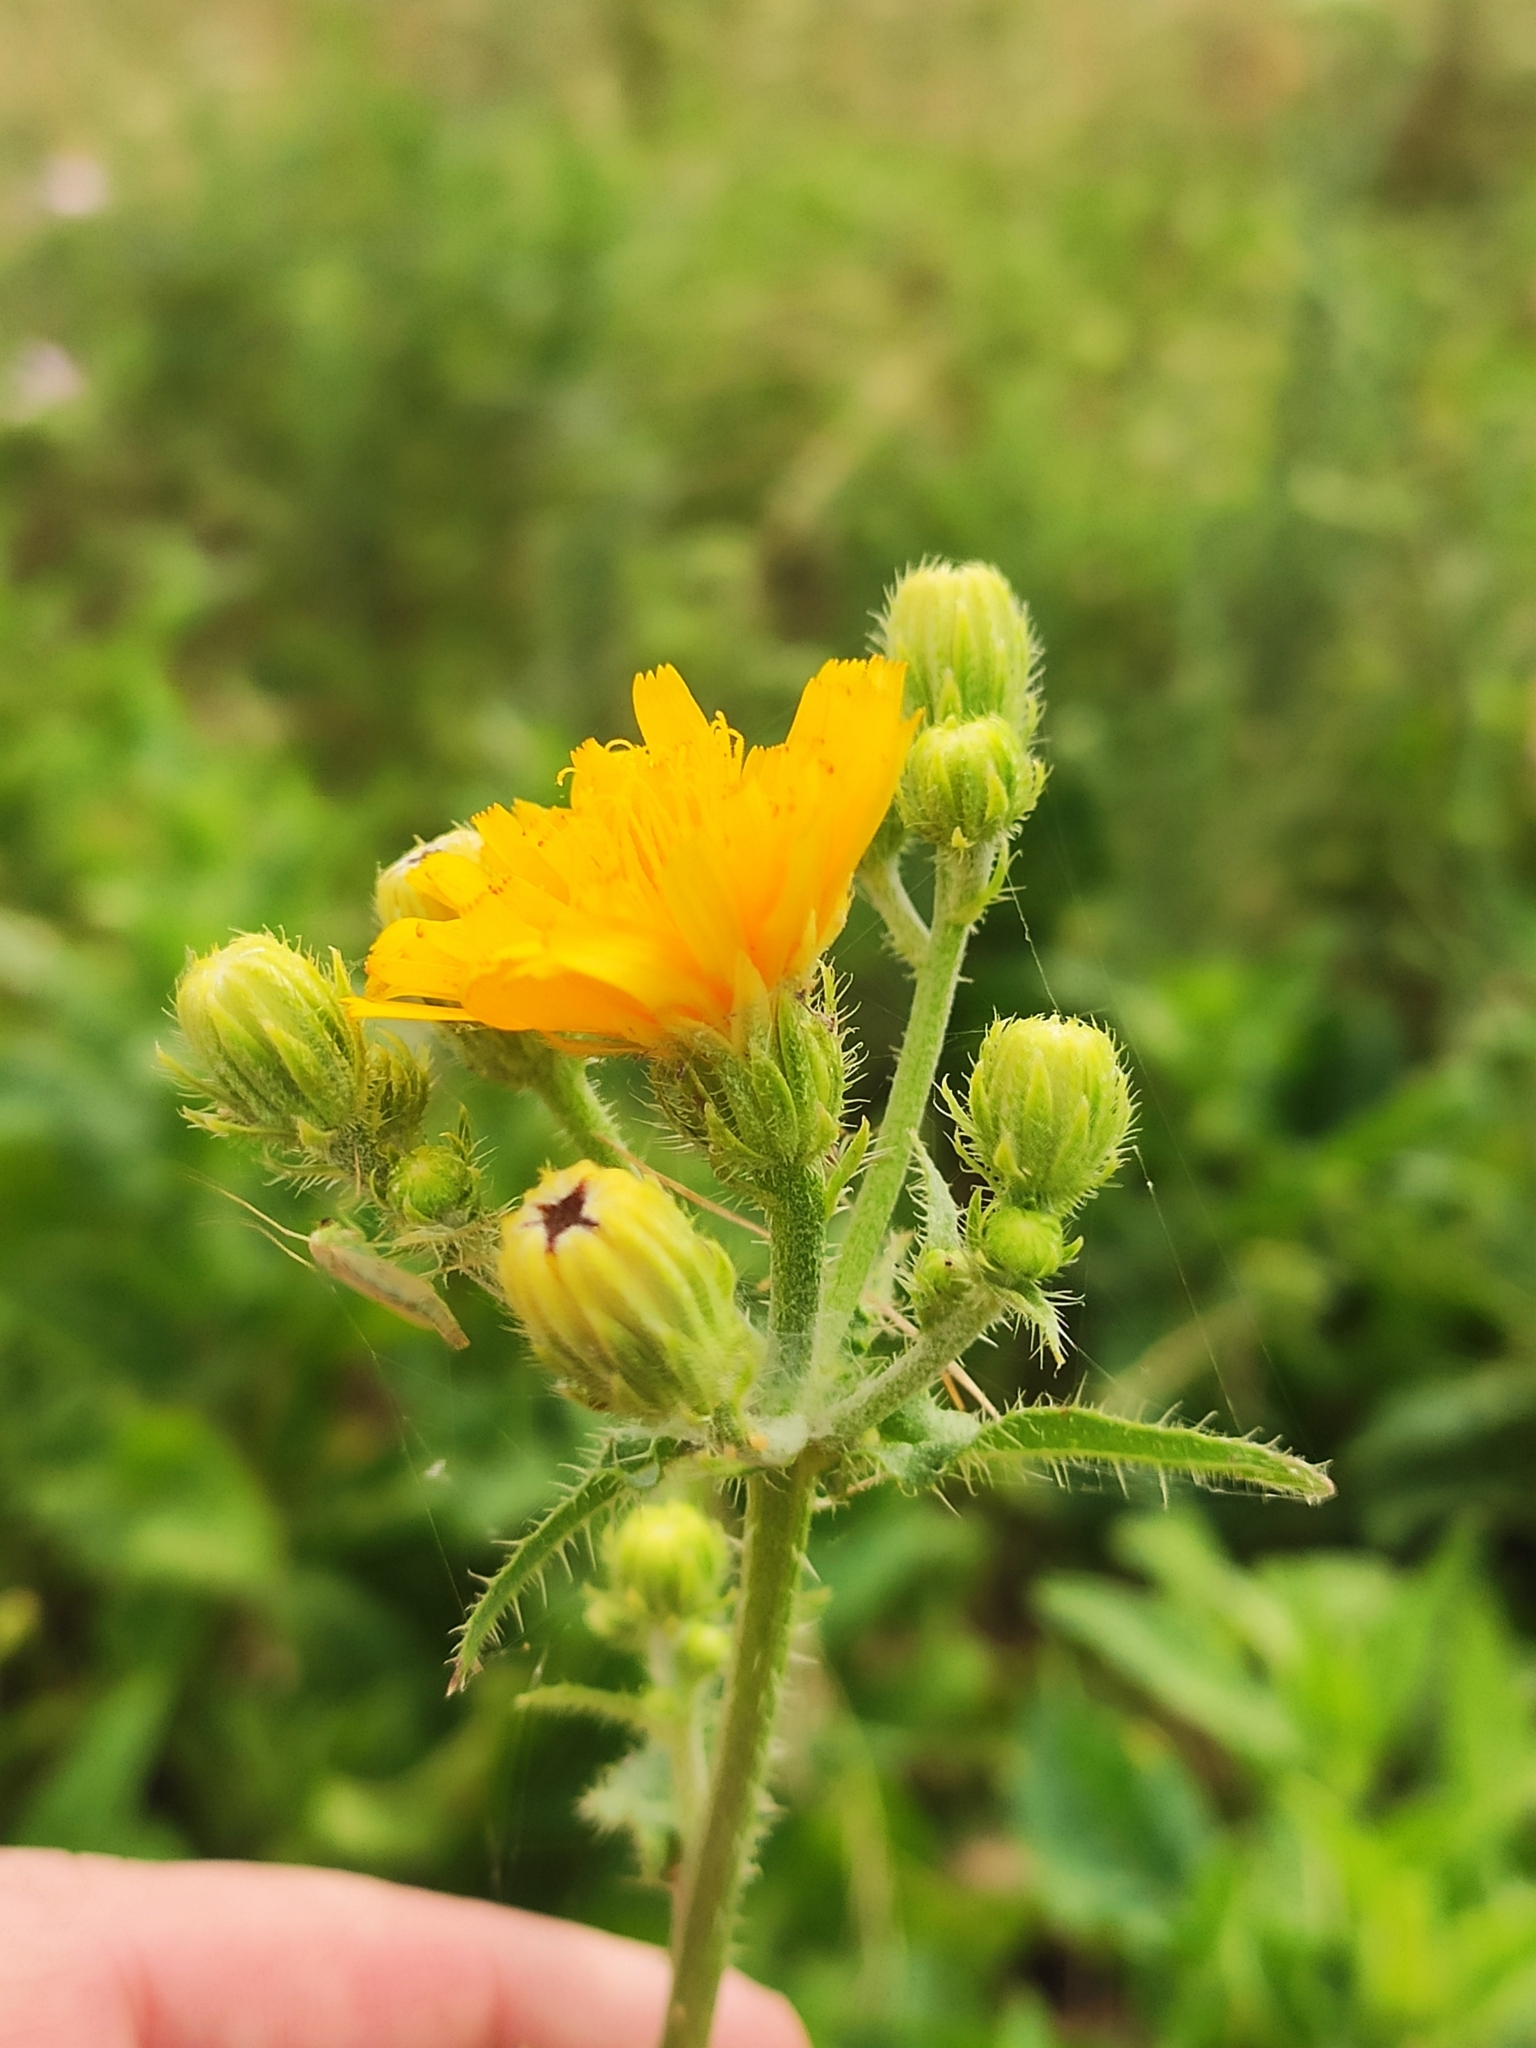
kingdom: Plantae
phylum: Tracheophyta
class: Magnoliopsida
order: Asterales
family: Asteraceae
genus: Picris
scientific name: Picris hieracioides
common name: Hawkweed oxtongue
